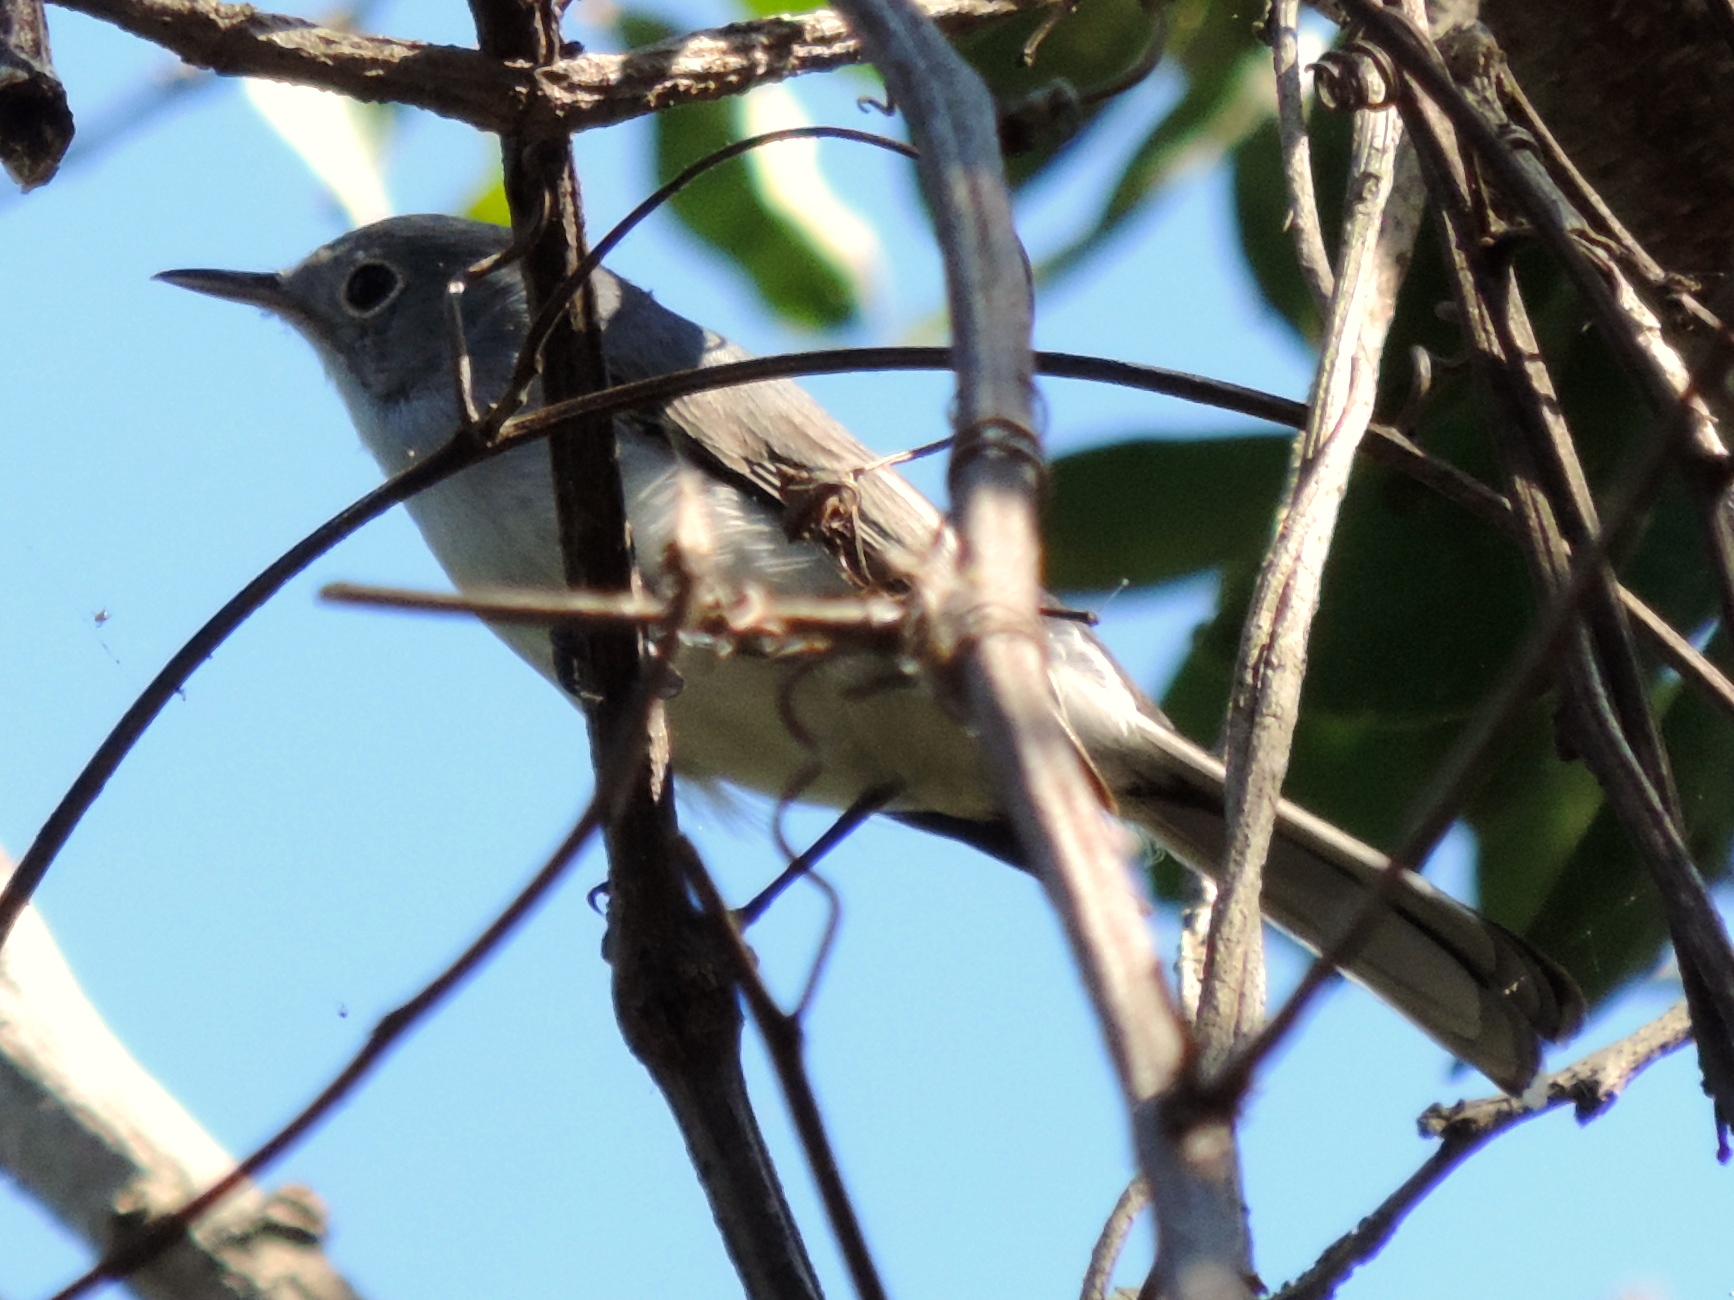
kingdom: Animalia
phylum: Chordata
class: Aves
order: Passeriformes
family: Polioptilidae
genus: Polioptila
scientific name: Polioptila caerulea
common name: Blue-gray gnatcatcher
